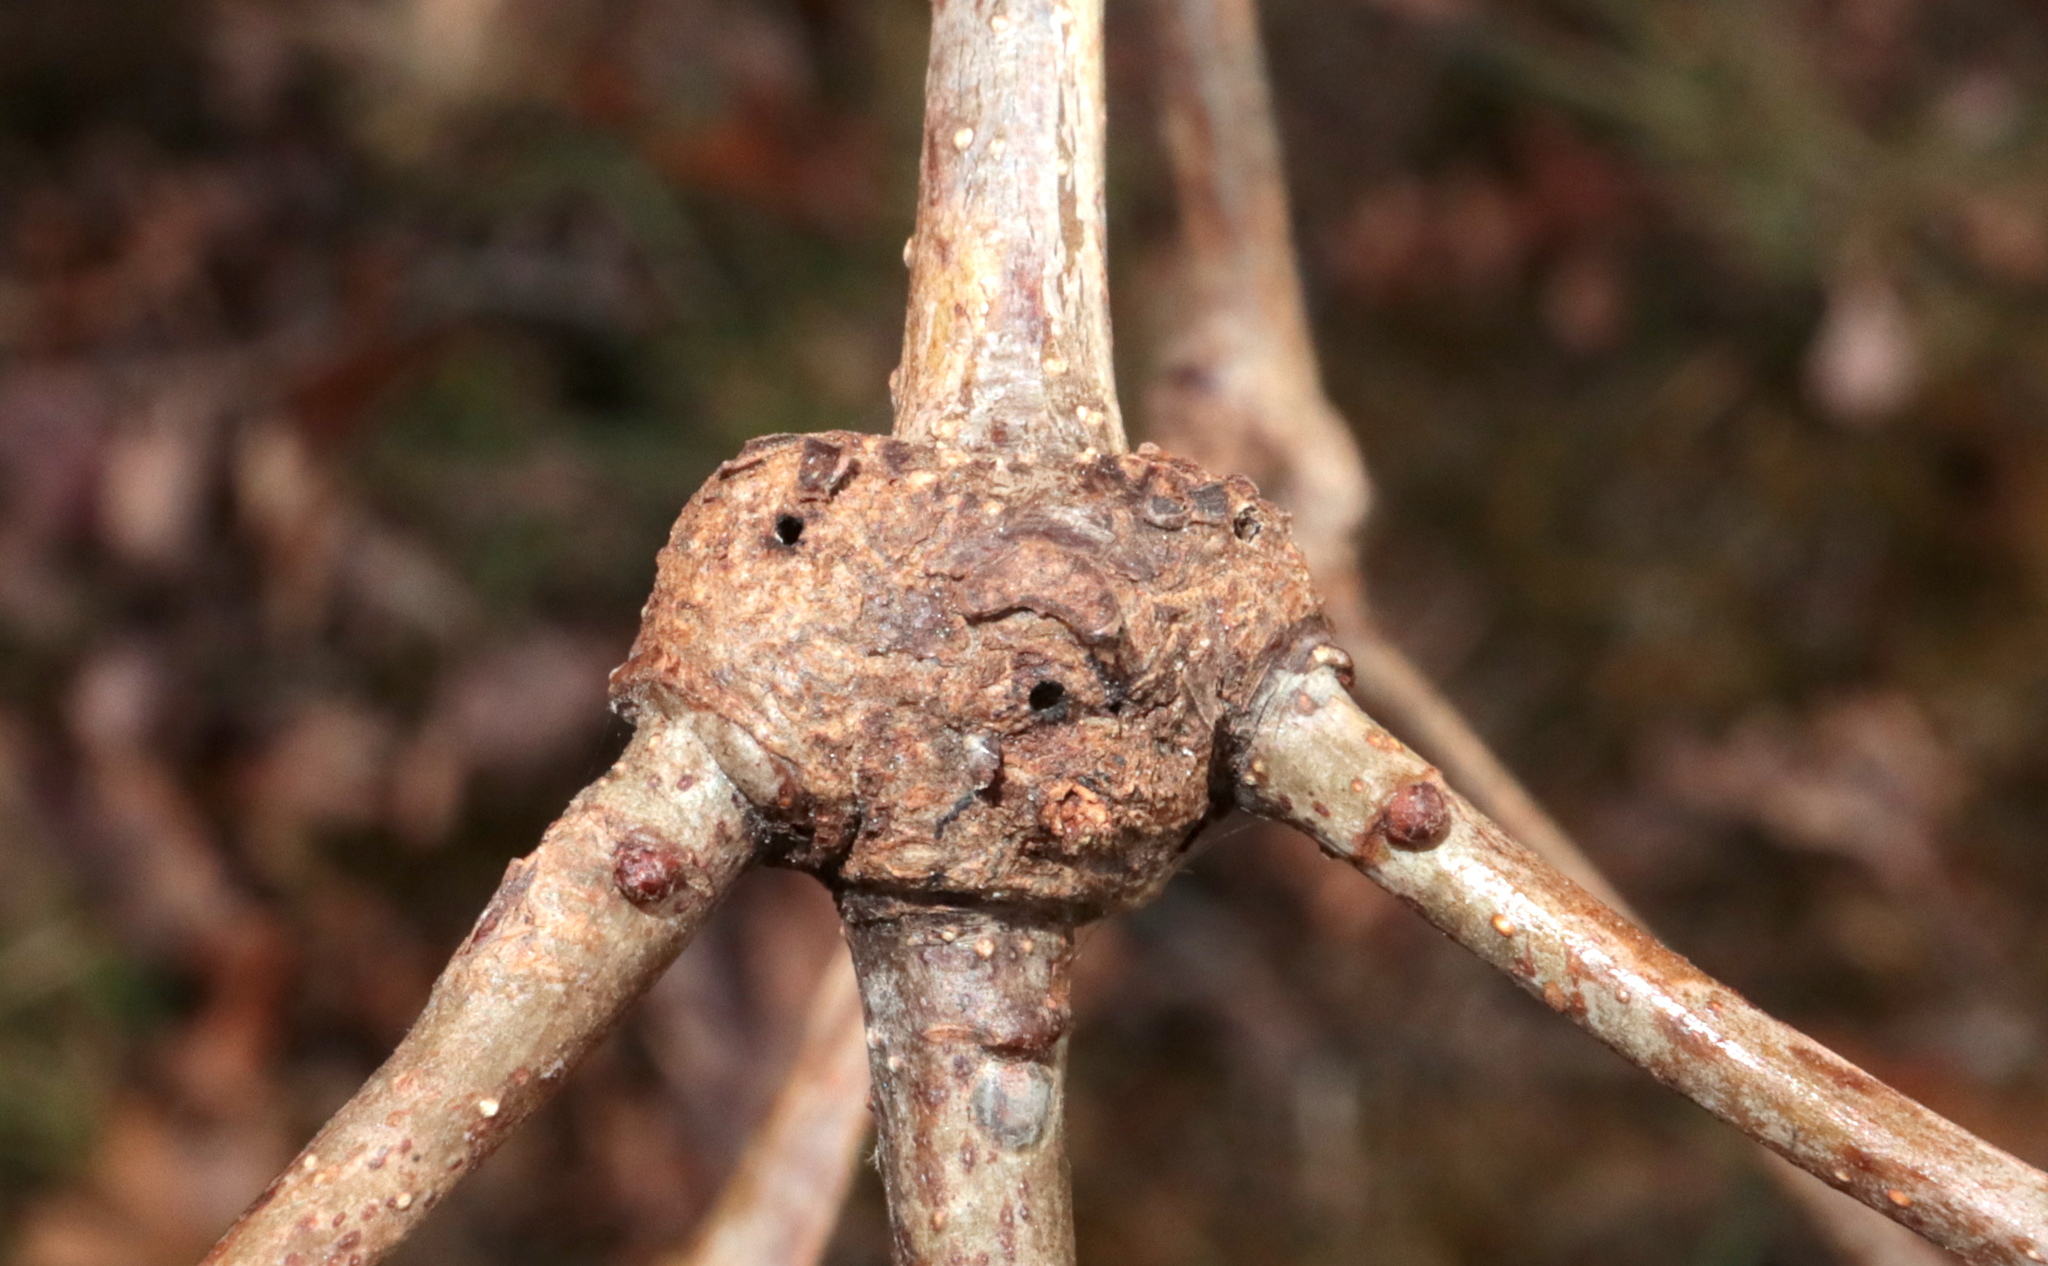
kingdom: Animalia
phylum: Arthropoda
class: Insecta
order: Hymenoptera
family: Cynipidae
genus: Loxaulus
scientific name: Loxaulus
